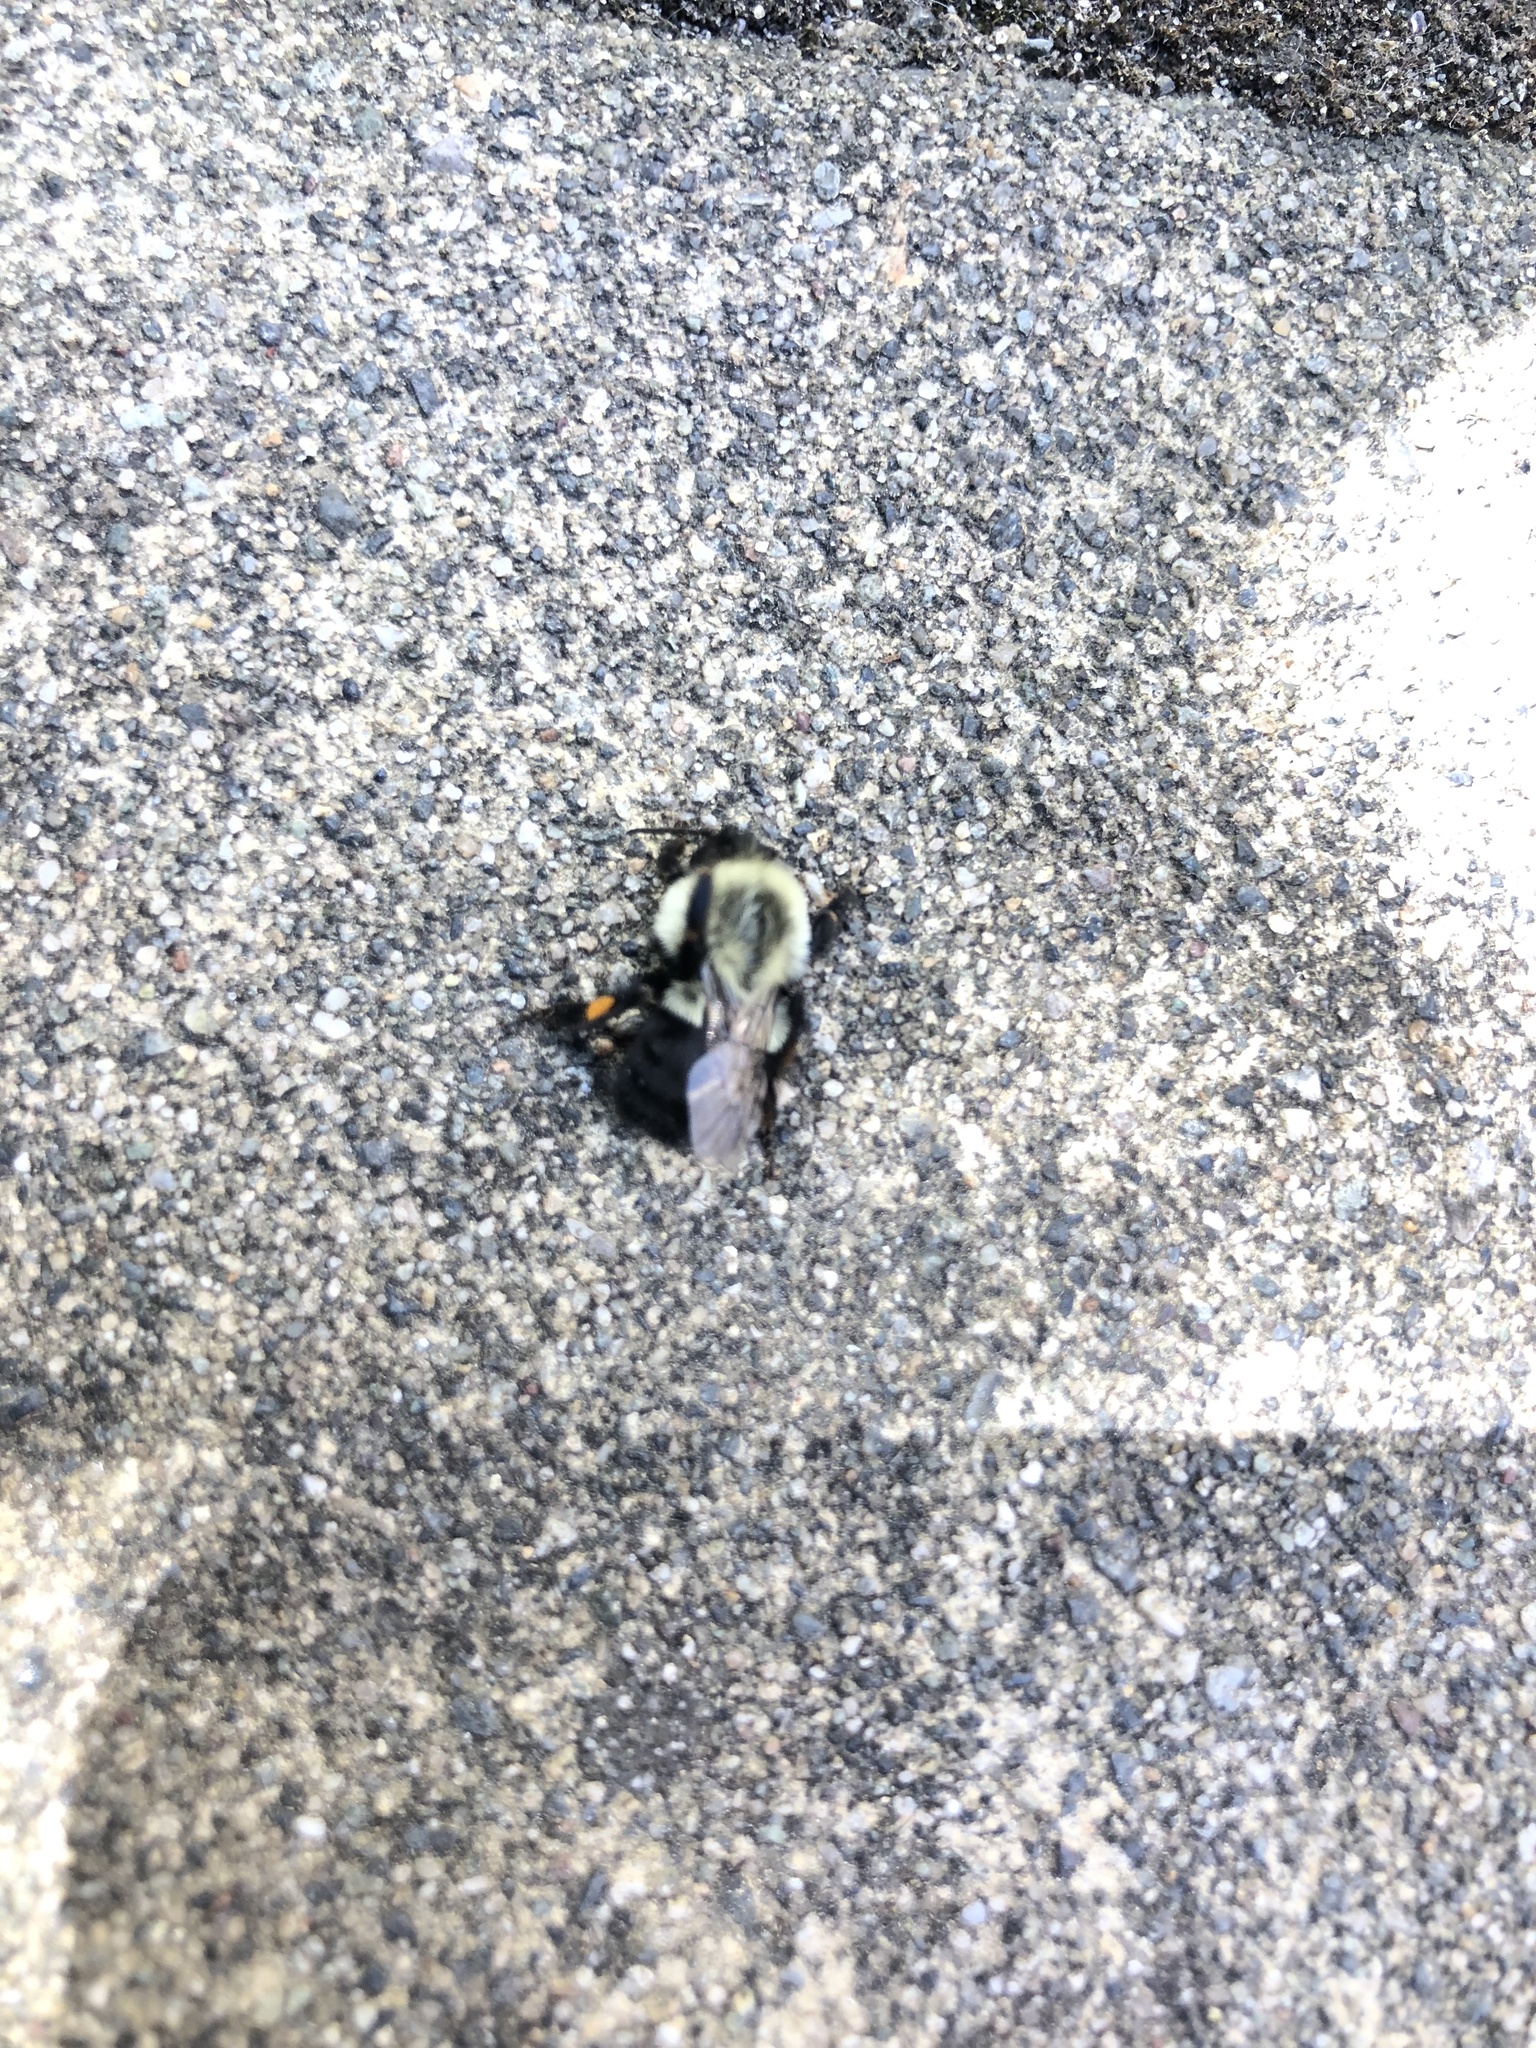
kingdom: Animalia
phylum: Arthropoda
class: Insecta
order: Hymenoptera
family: Apidae
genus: Bombus
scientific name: Bombus impatiens
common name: Common eastern bumble bee
